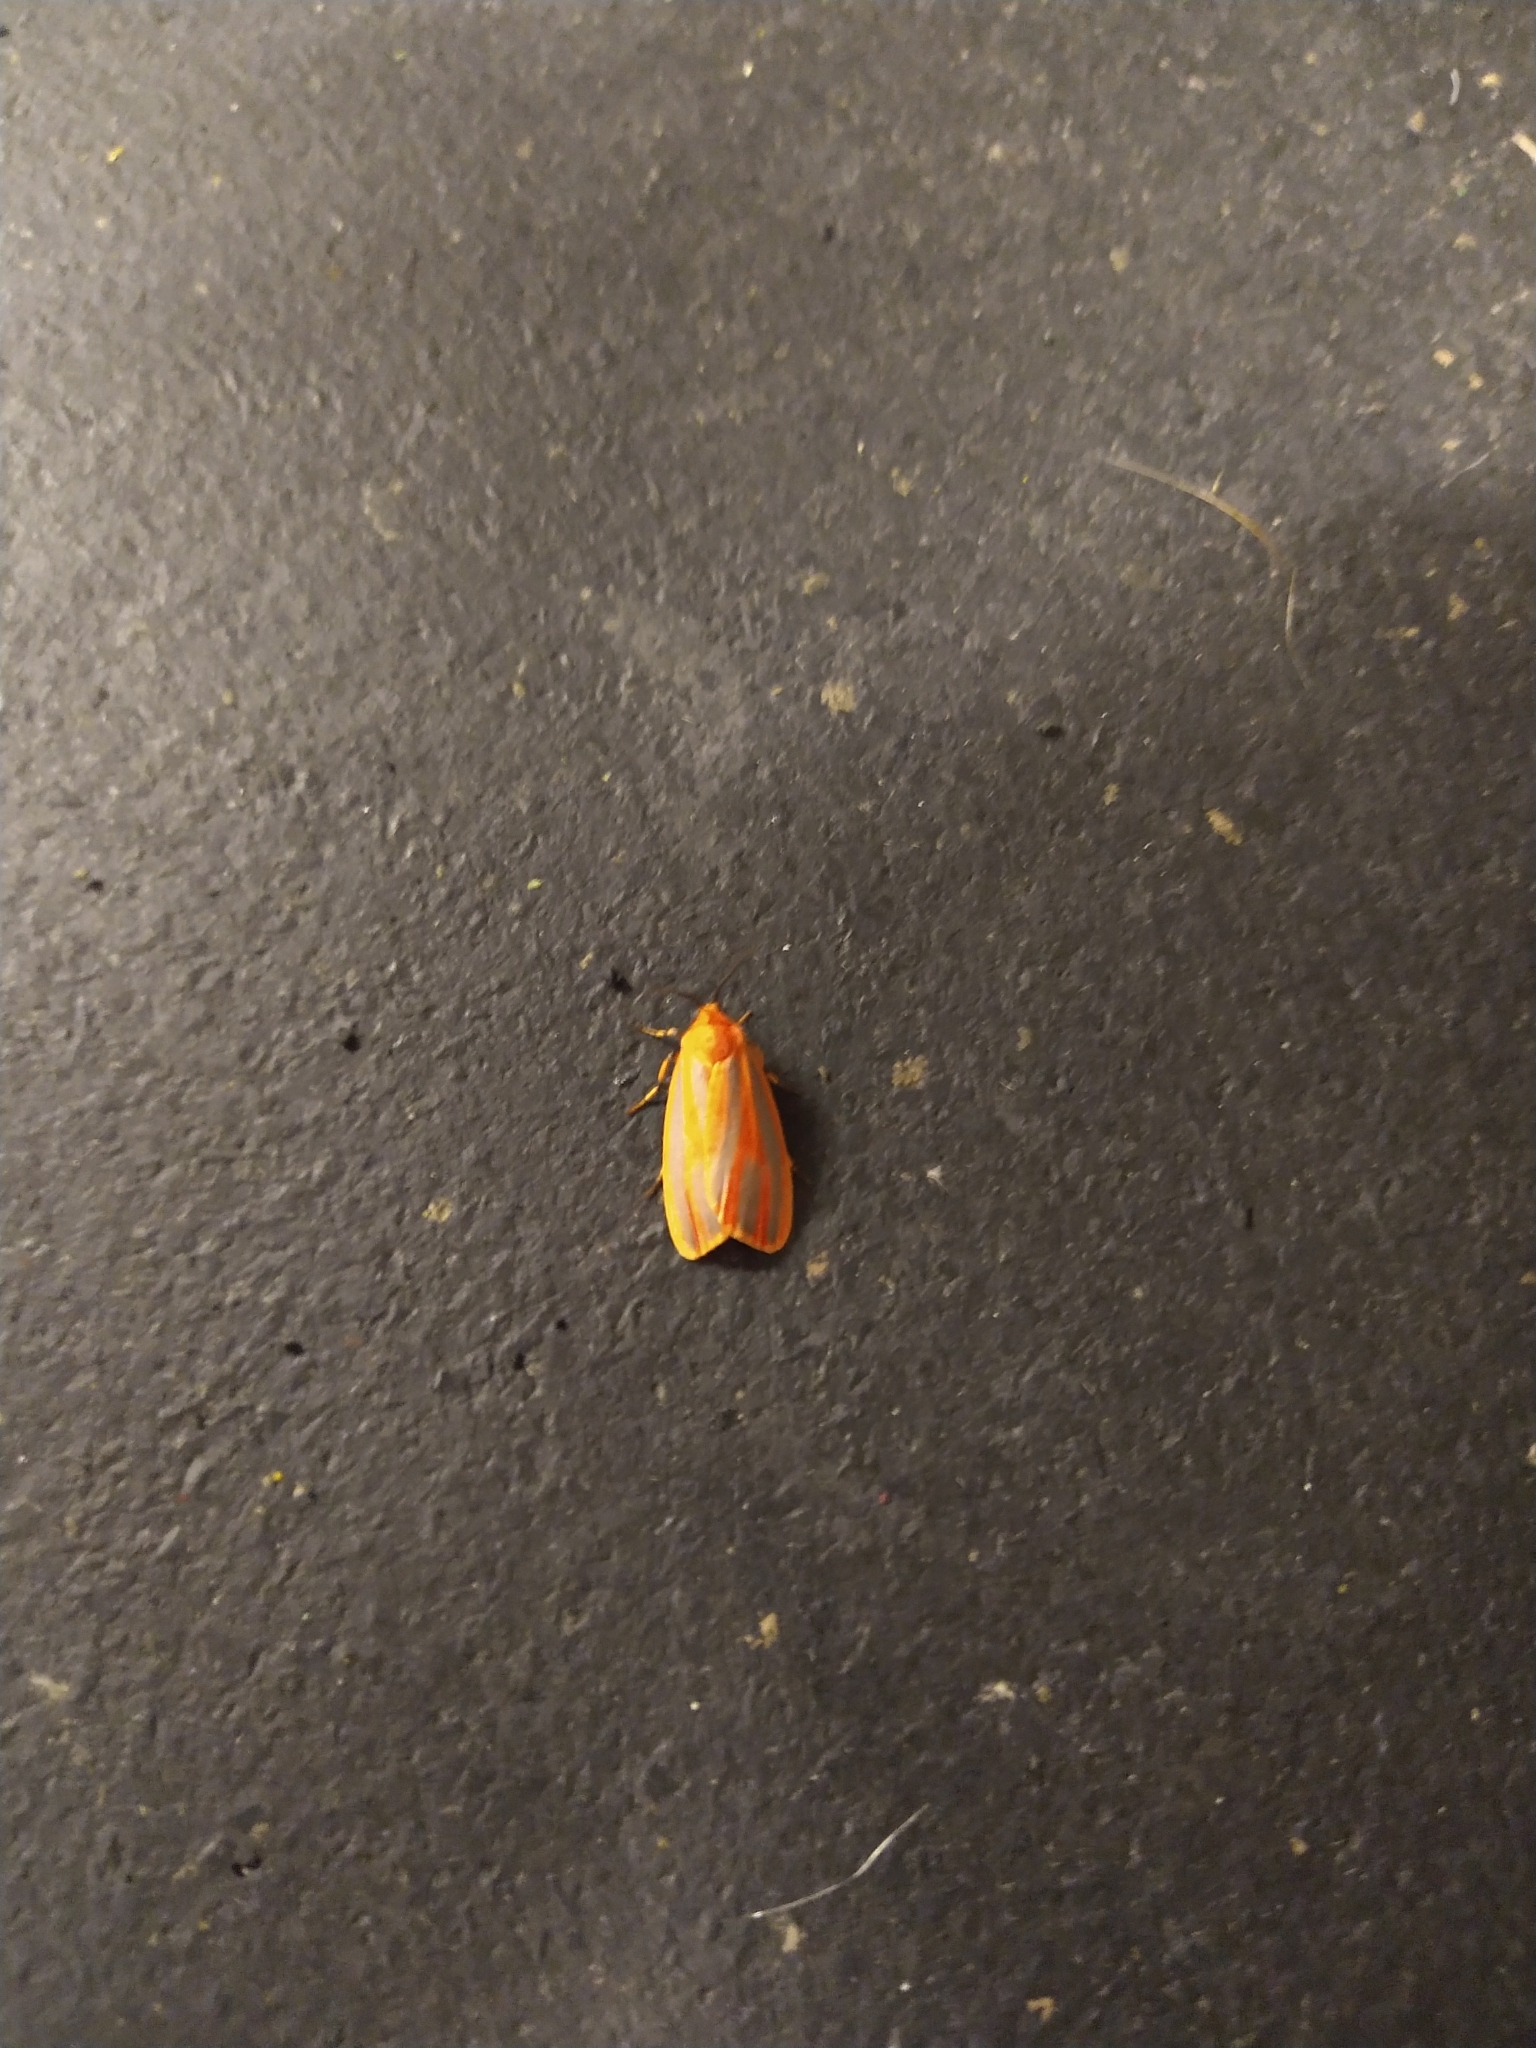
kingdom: Animalia
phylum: Arthropoda
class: Insecta
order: Lepidoptera
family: Erebidae
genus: Hypoprepia
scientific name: Hypoprepia fucosa
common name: Painted lichen moth
